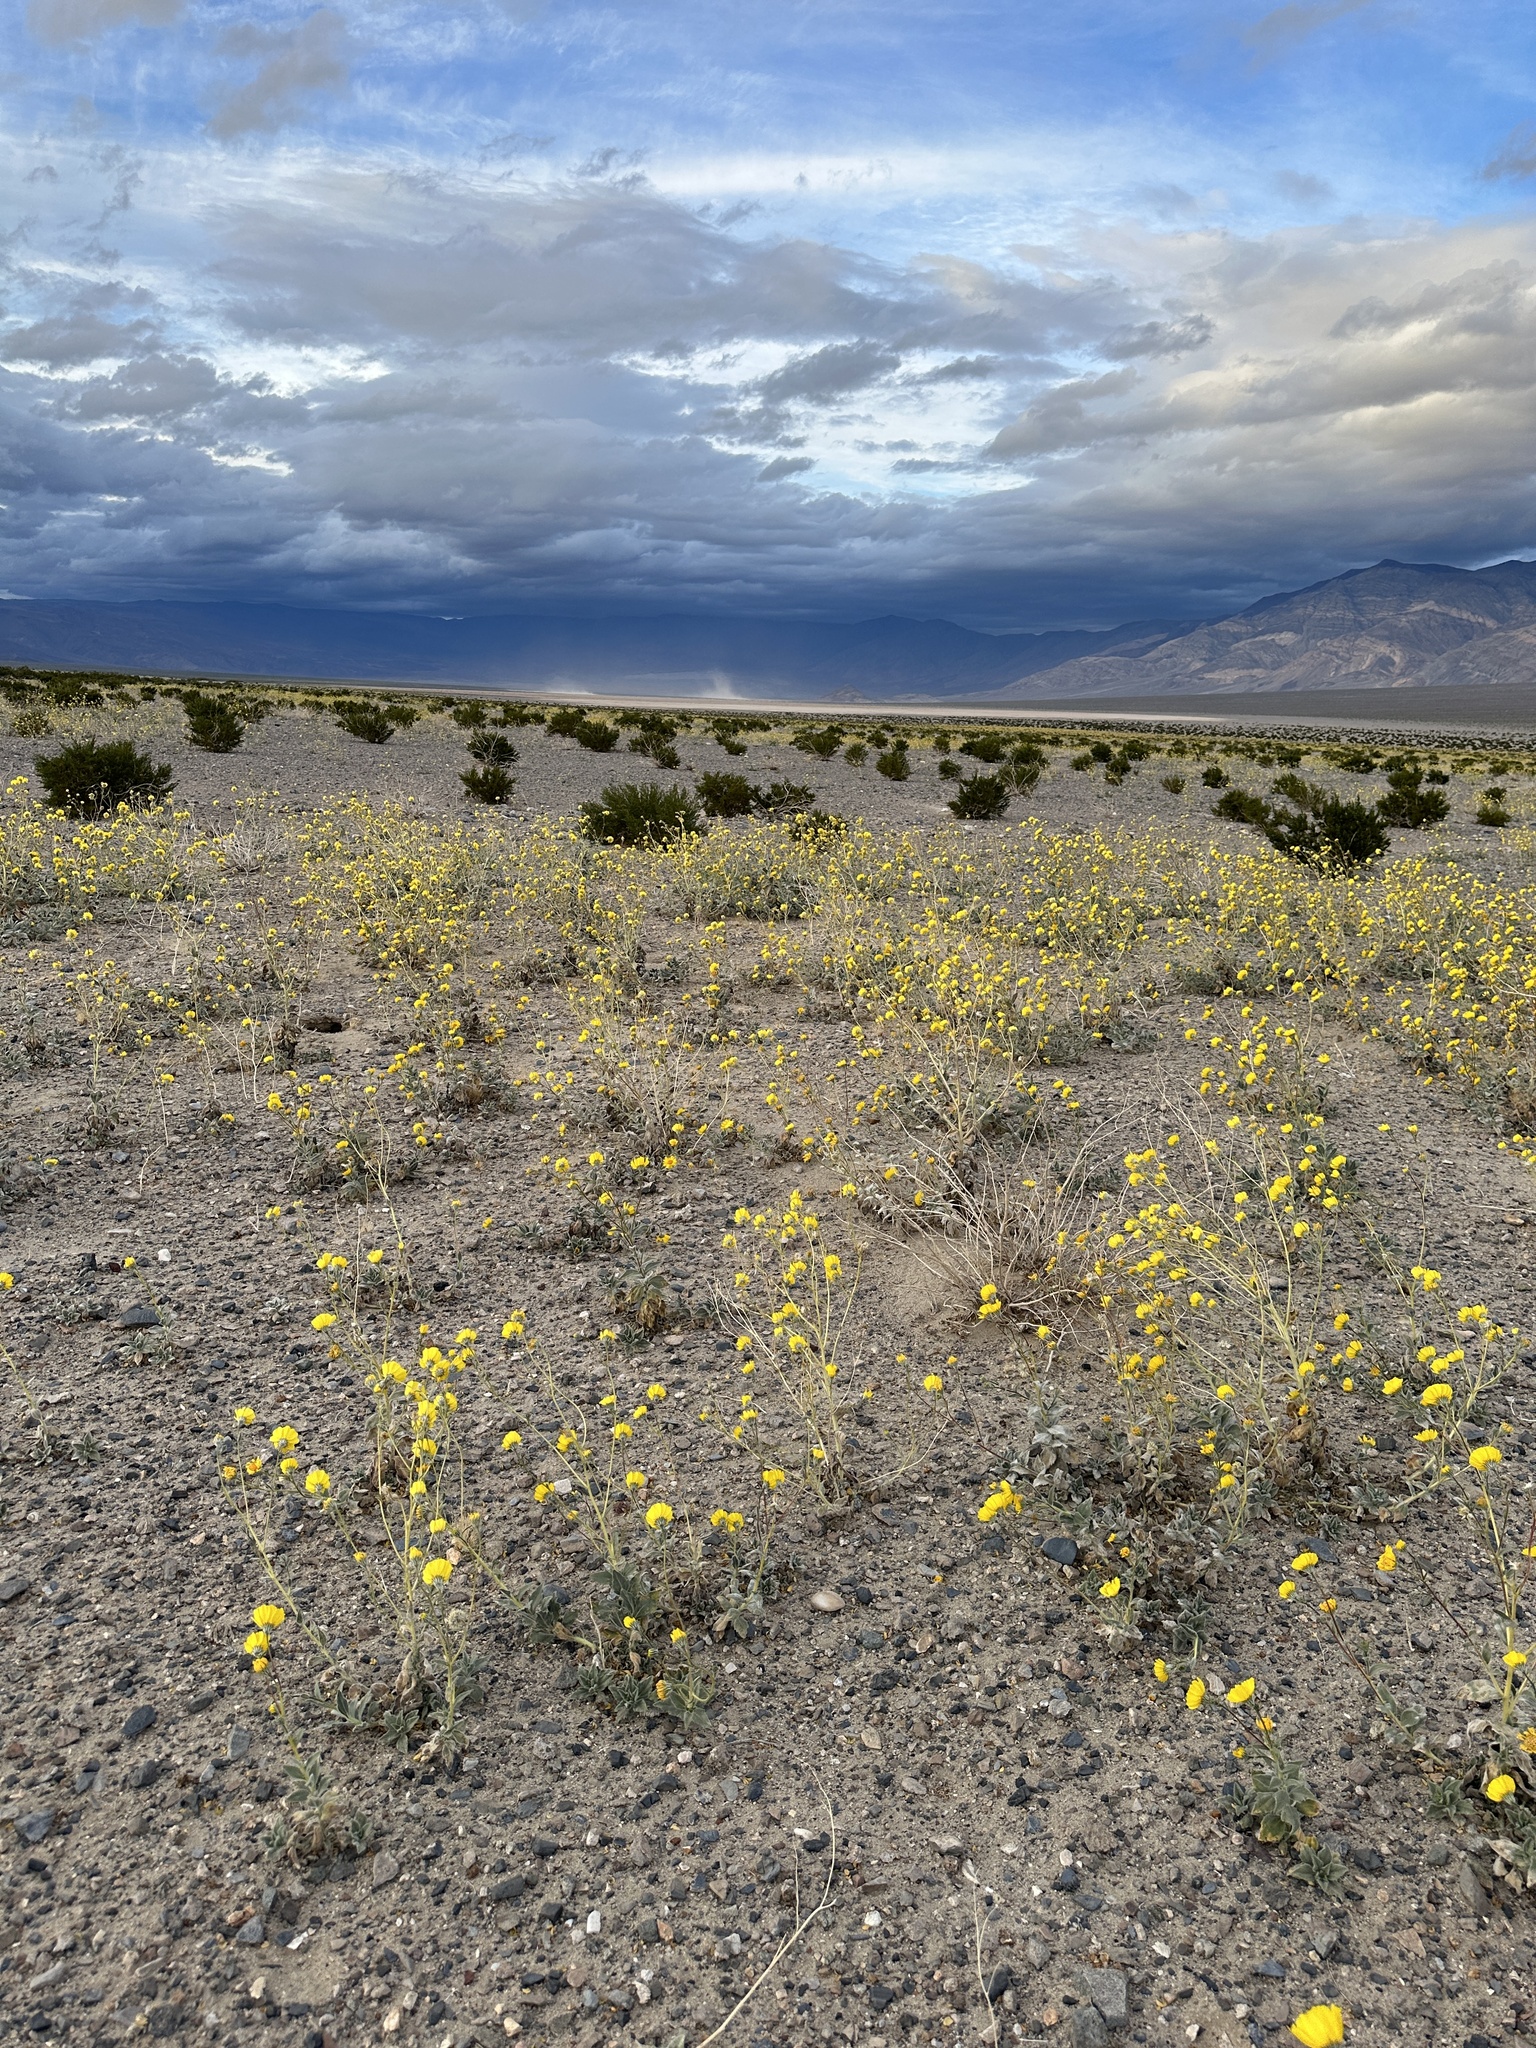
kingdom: Plantae
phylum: Tracheophyta
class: Magnoliopsida
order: Asterales
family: Asteraceae
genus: Geraea
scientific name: Geraea canescens
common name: Desert-gold
